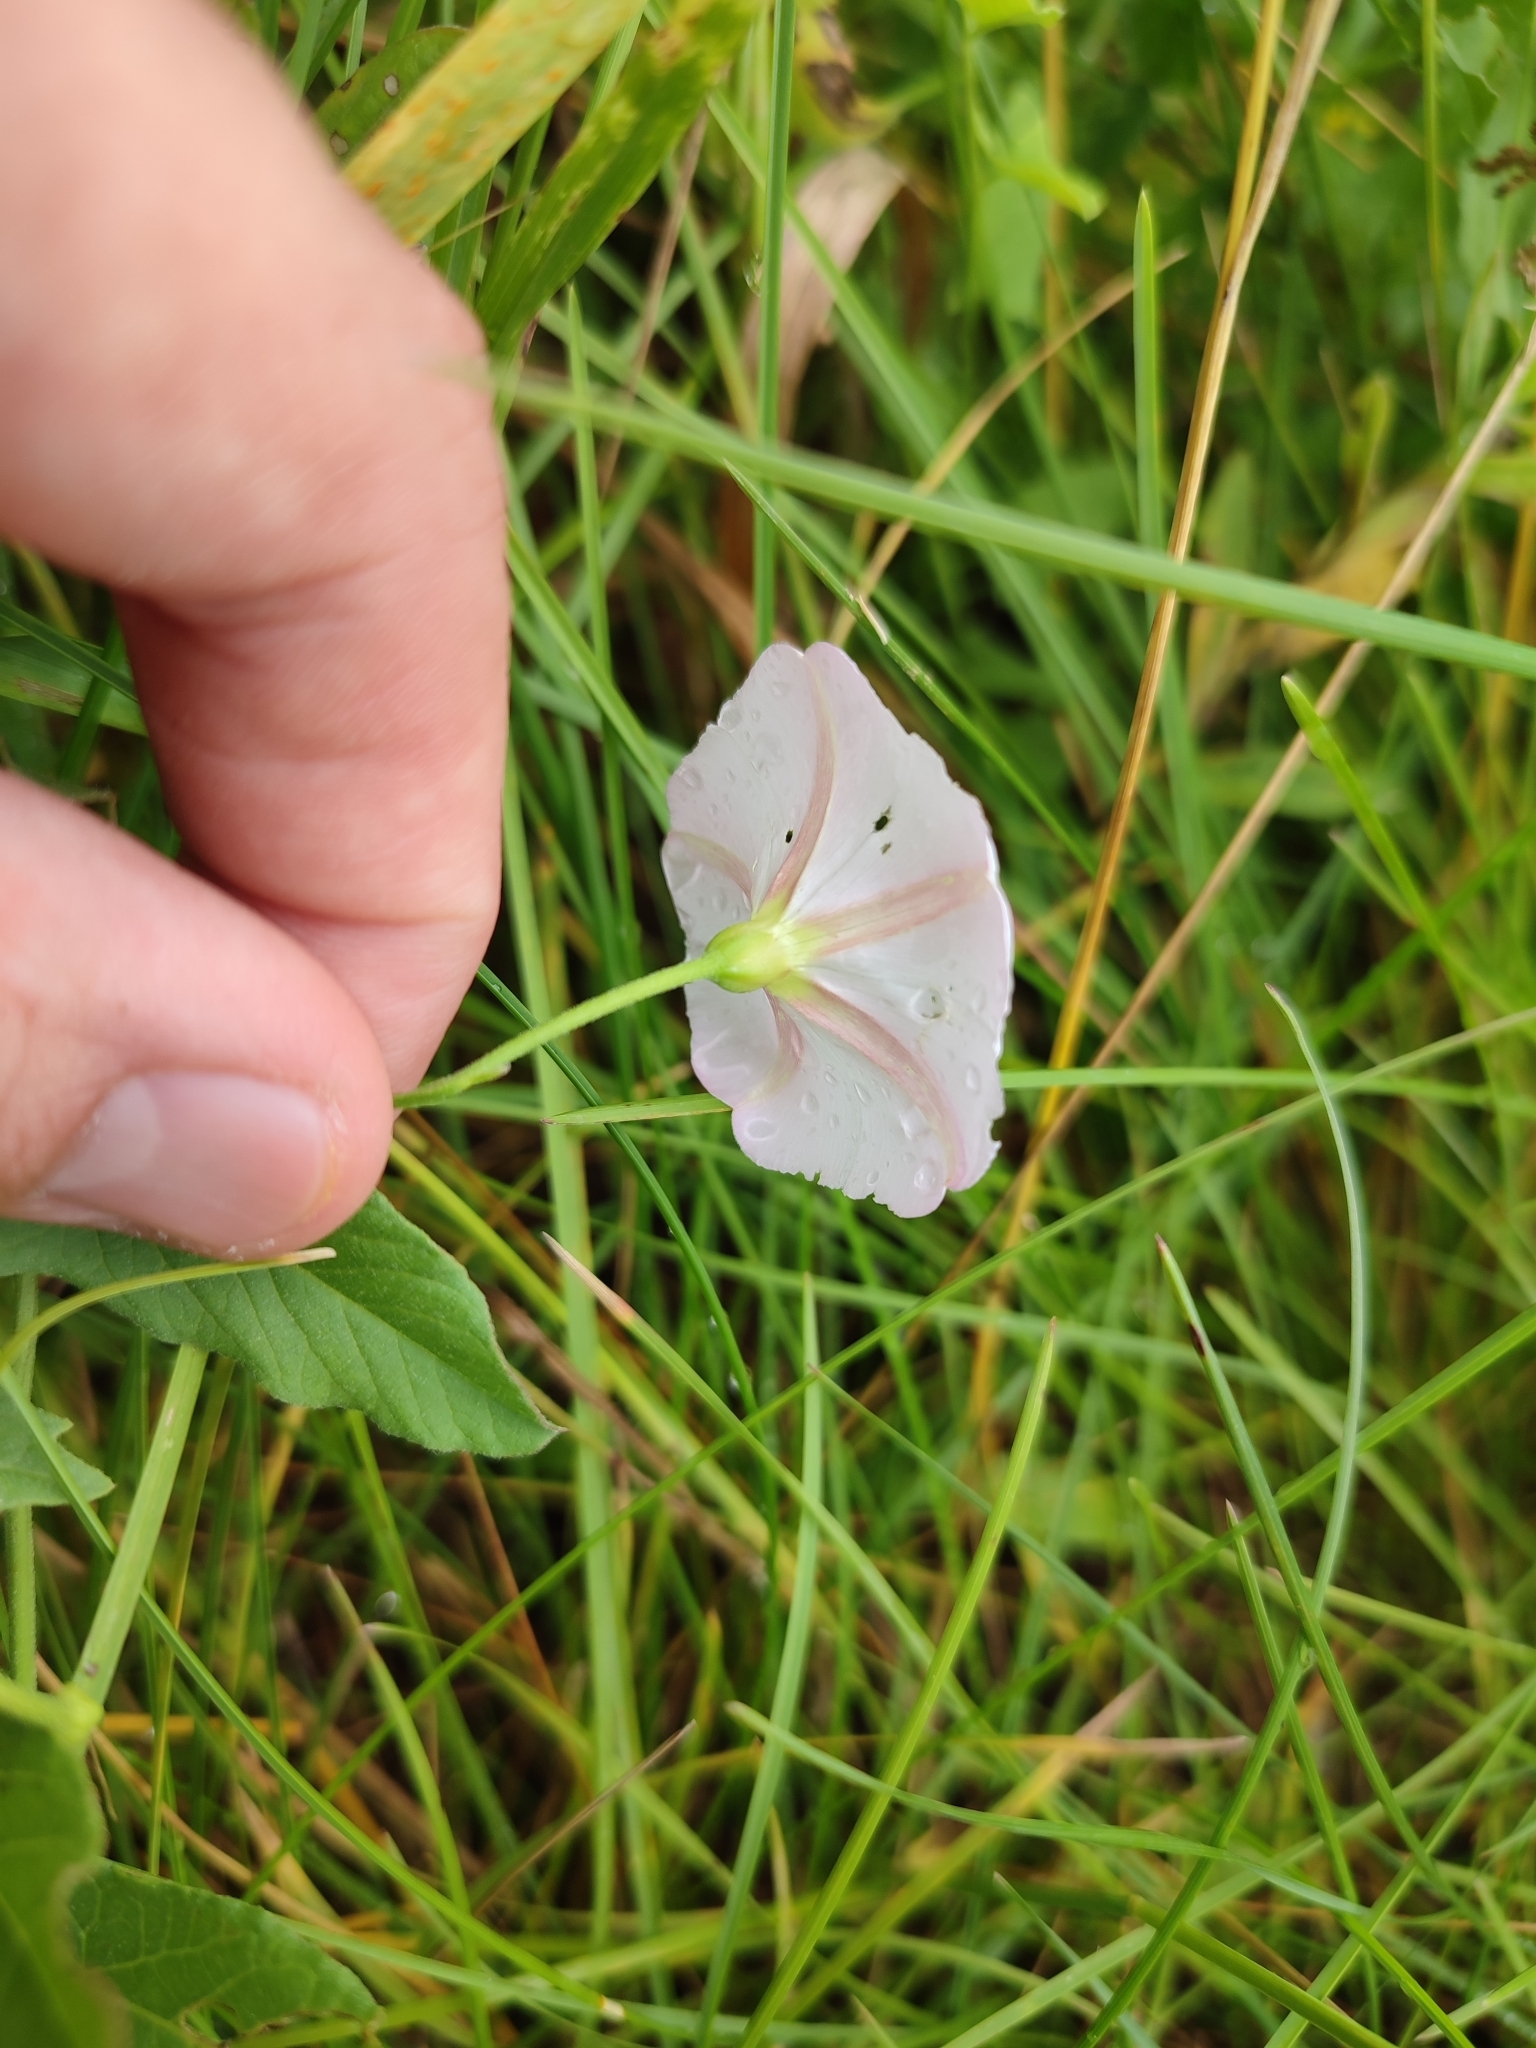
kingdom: Plantae
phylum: Tracheophyta
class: Magnoliopsida
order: Solanales
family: Convolvulaceae
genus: Convolvulus
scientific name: Convolvulus arvensis
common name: Field bindweed
